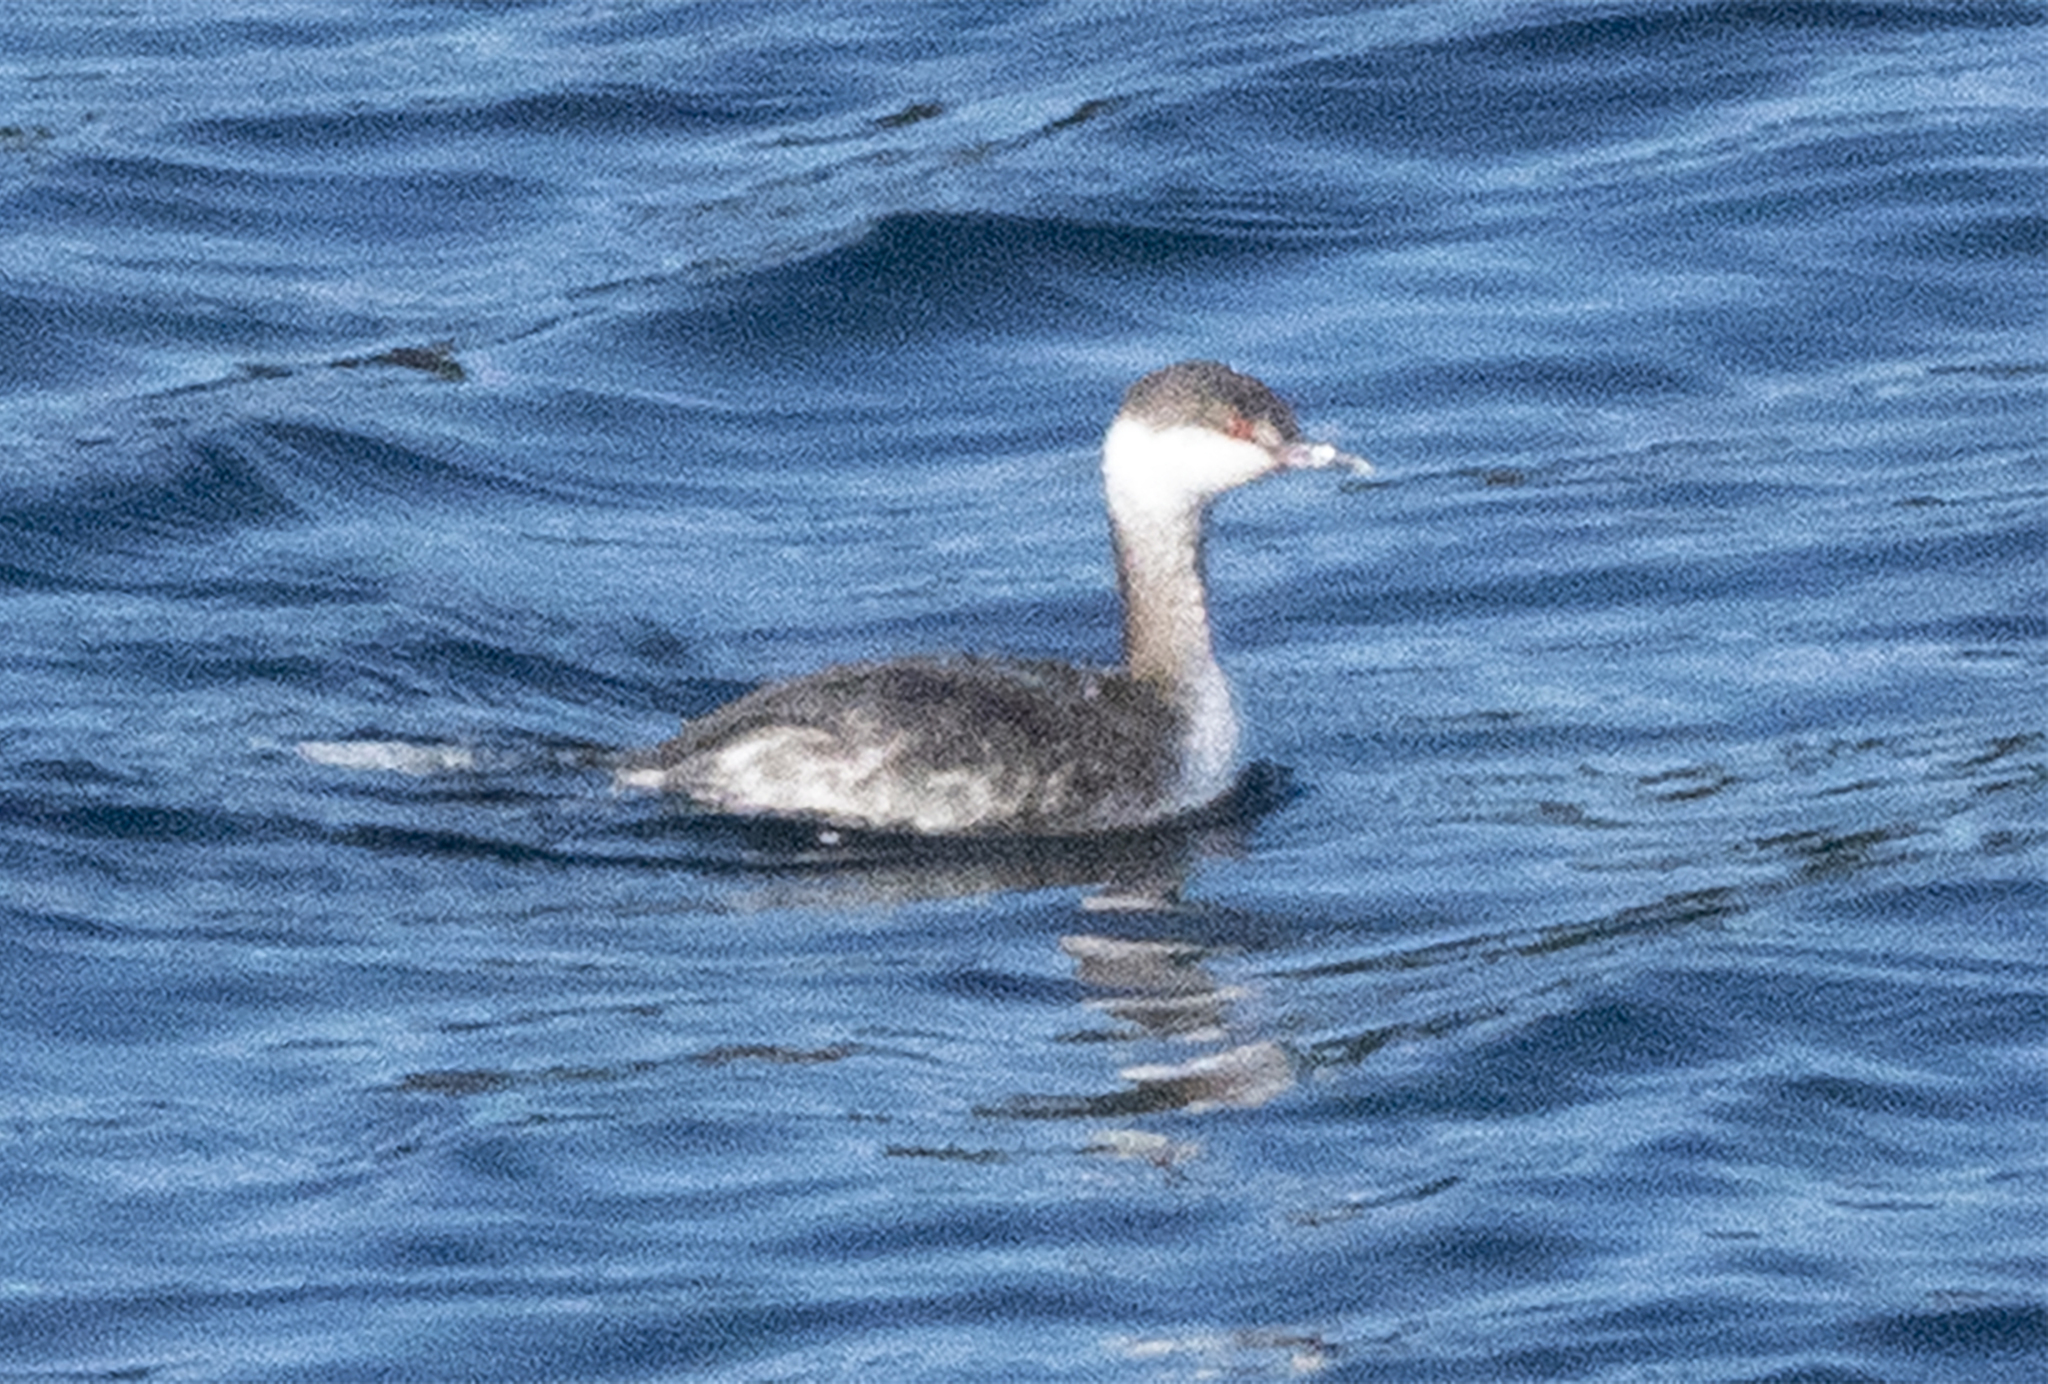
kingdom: Animalia
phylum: Chordata
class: Aves
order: Podicipediformes
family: Podicipedidae
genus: Podiceps
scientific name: Podiceps auritus
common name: Horned grebe
